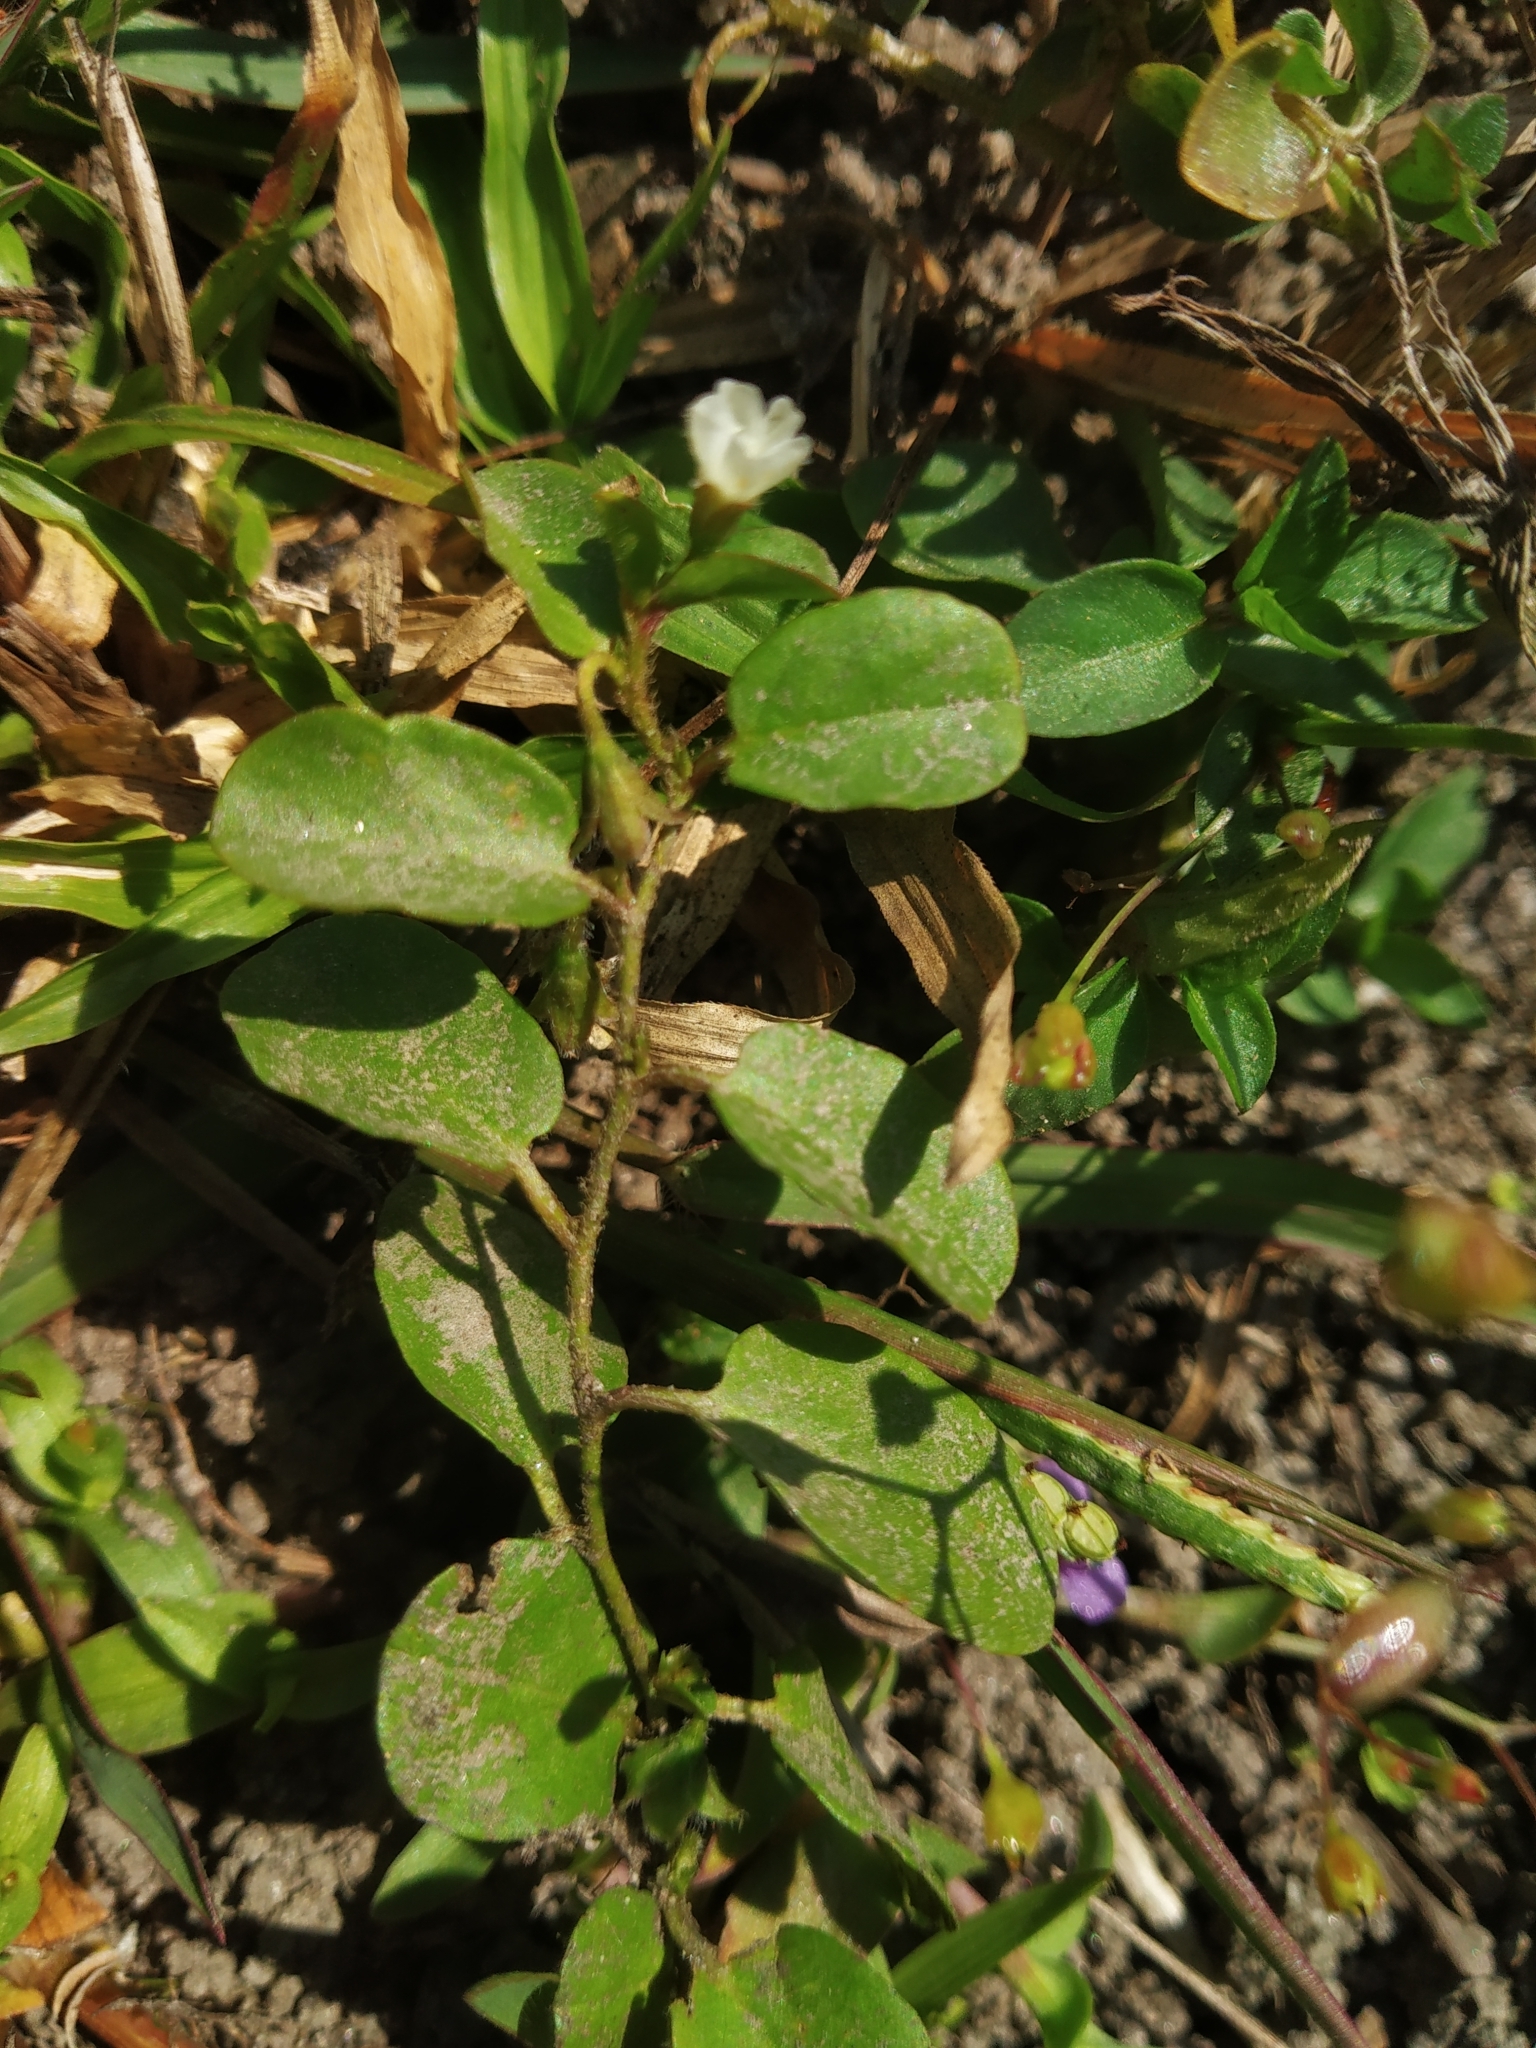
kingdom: Plantae
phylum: Tracheophyta
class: Magnoliopsida
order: Solanales
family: Convolvulaceae
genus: Evolvulus
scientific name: Evolvulus nummularius
